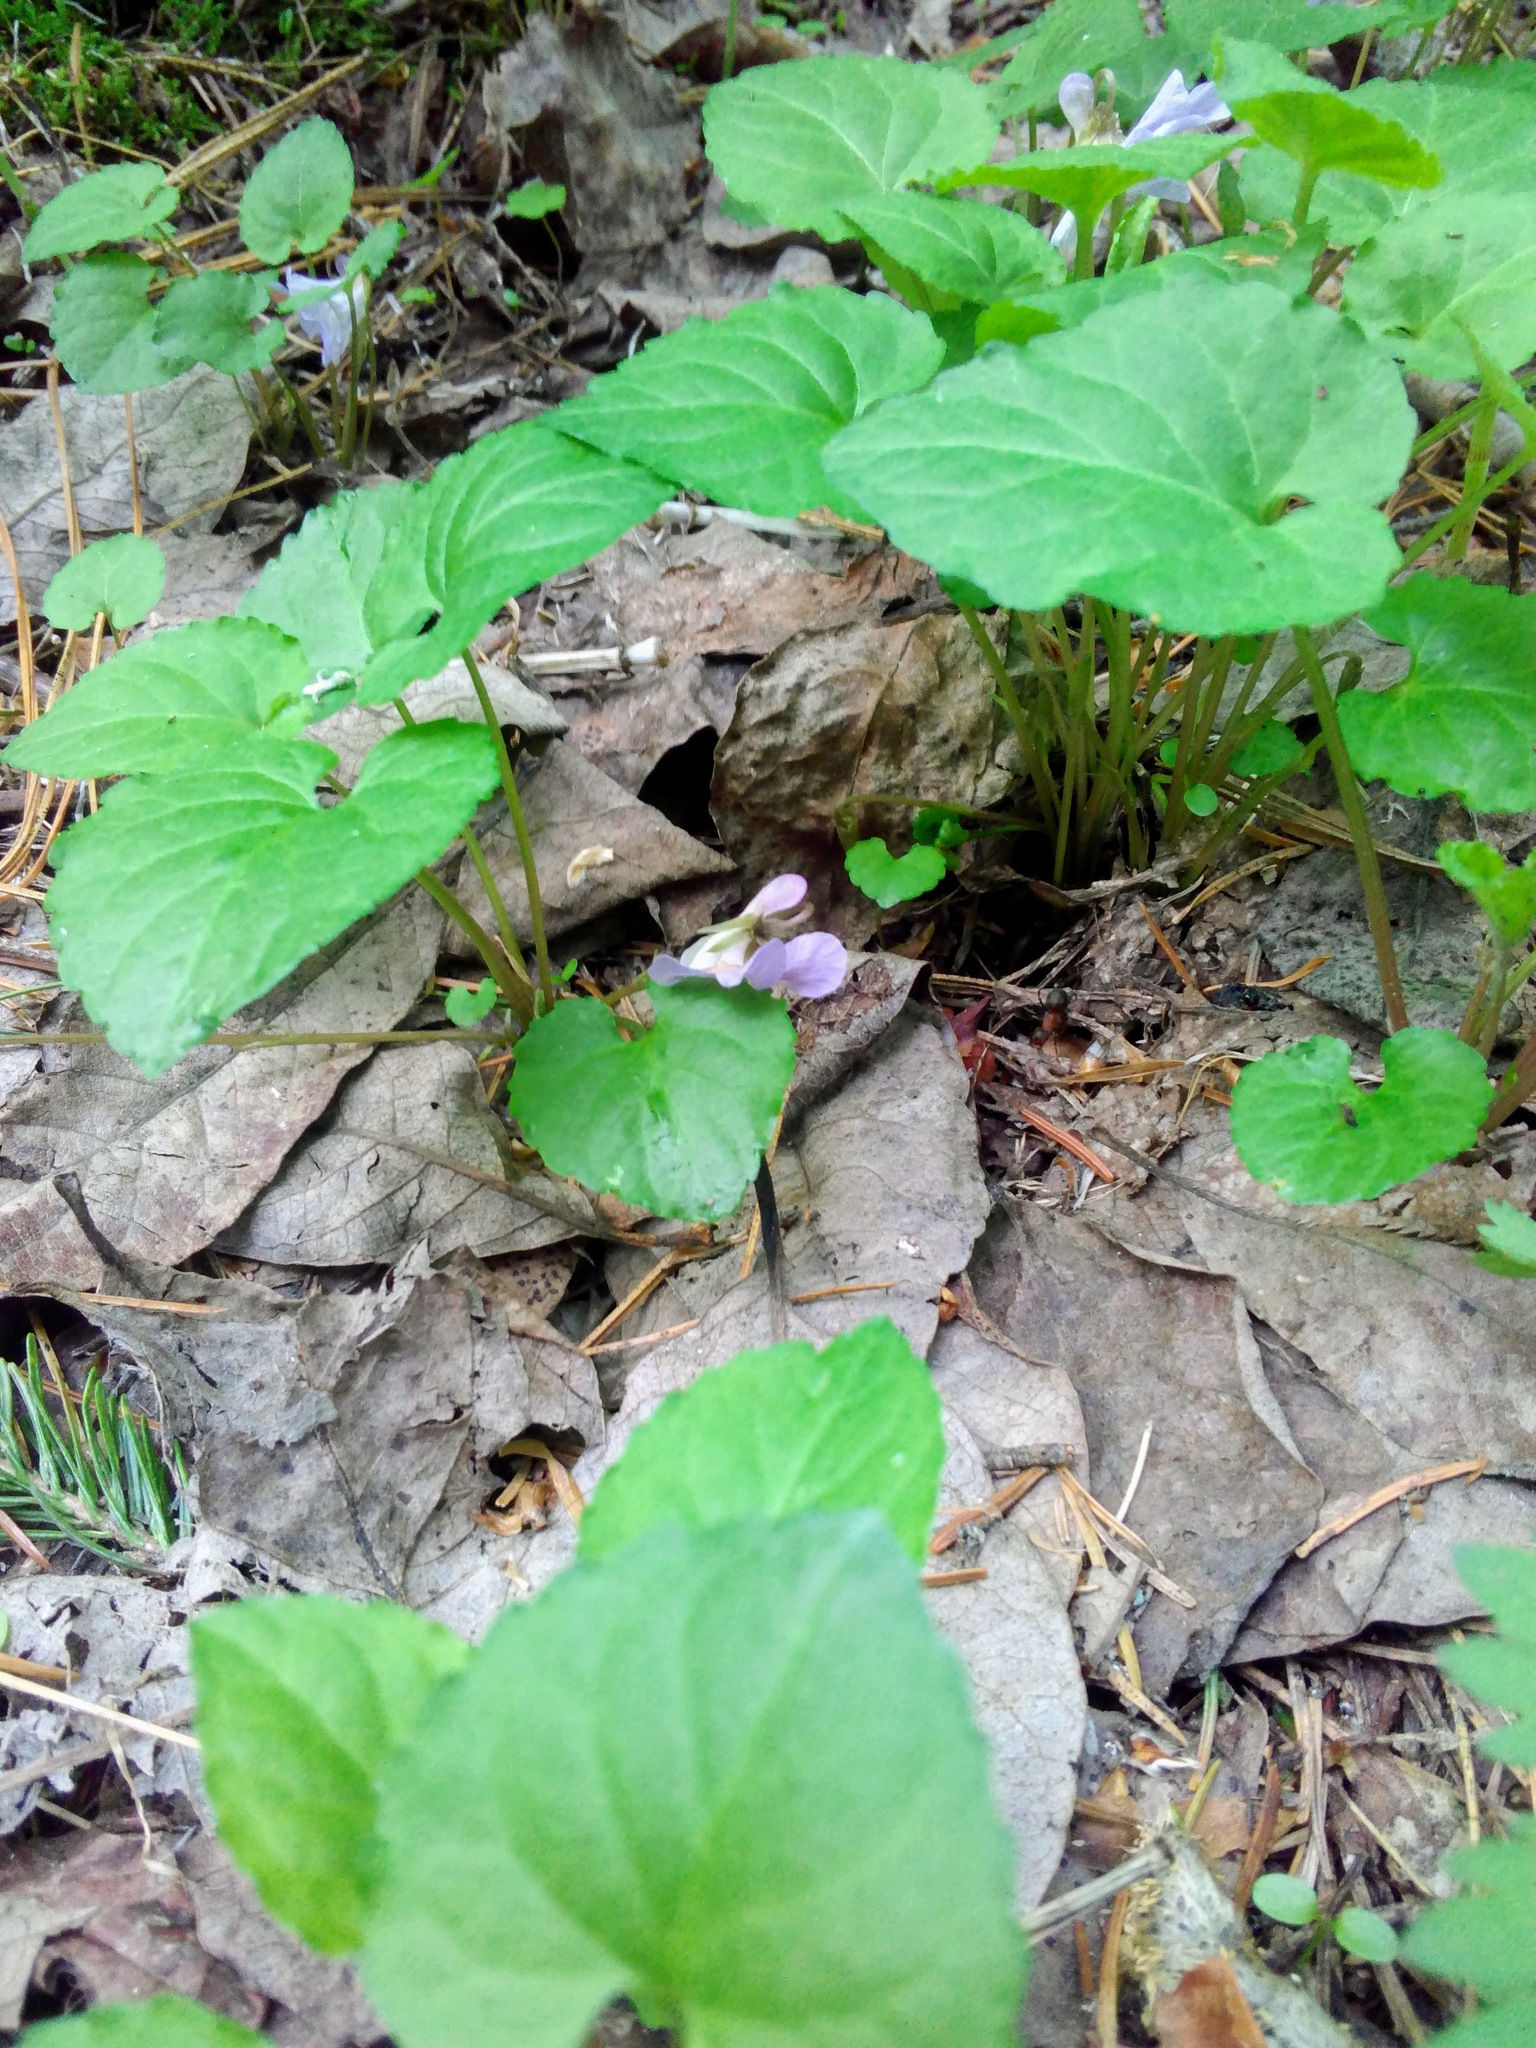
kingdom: Plantae
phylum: Tracheophyta
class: Magnoliopsida
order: Malpighiales
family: Violaceae
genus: Viola
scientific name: Viola selkirkii
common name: Selkirk's violet
